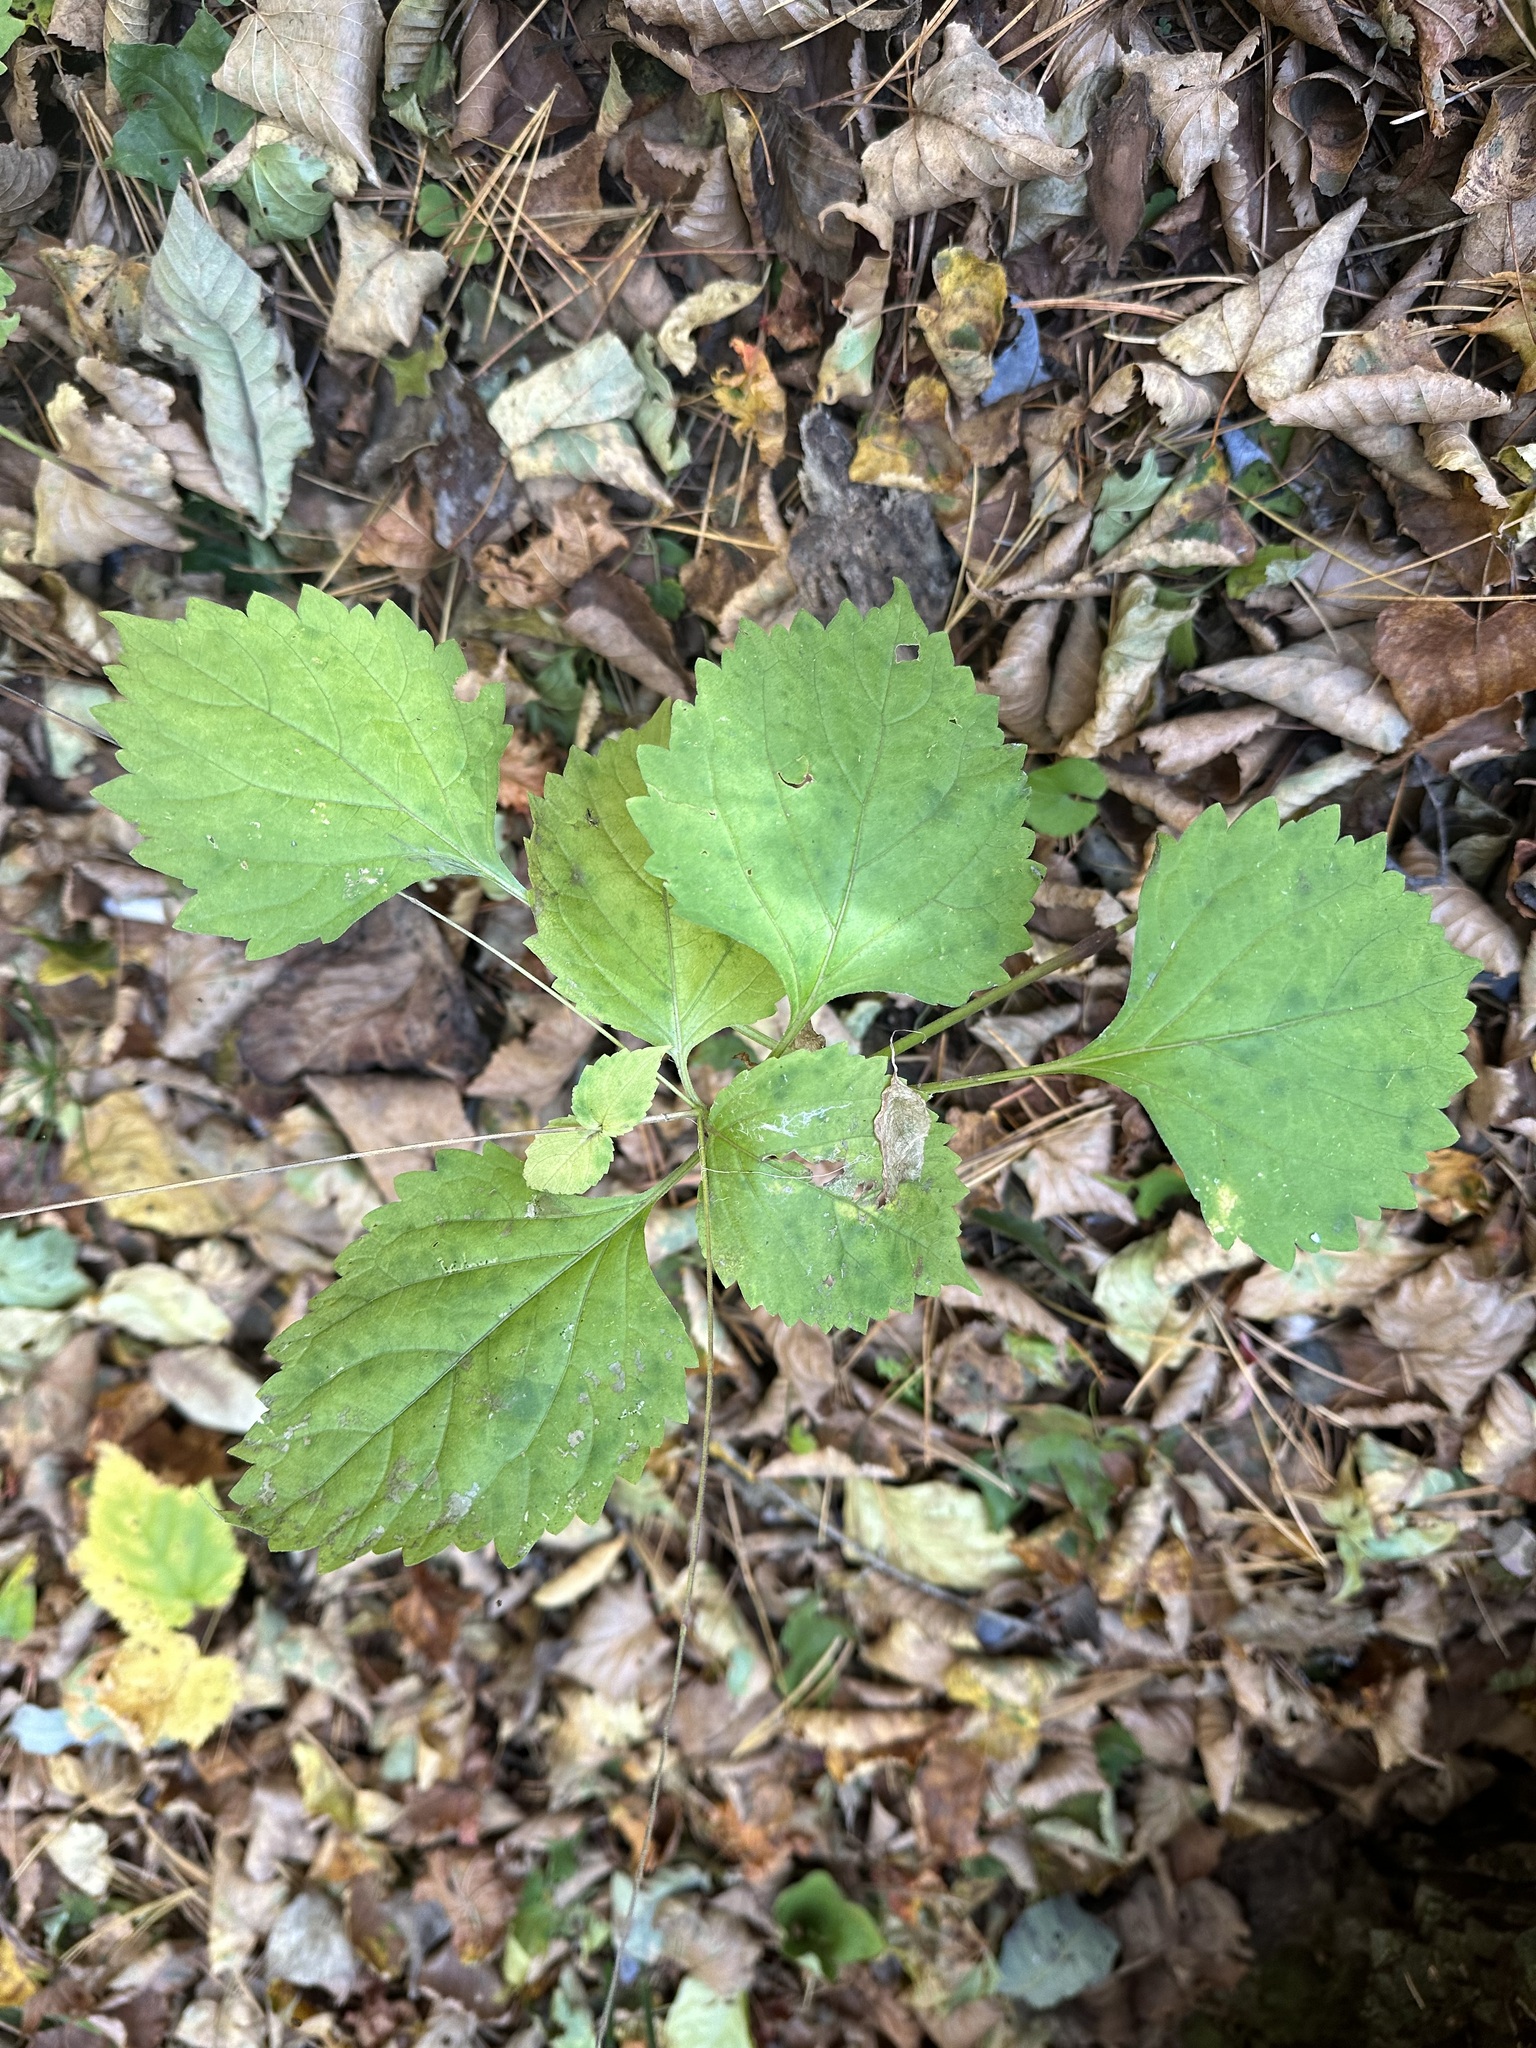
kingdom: Plantae
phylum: Tracheophyta
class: Magnoliopsida
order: Lamiales
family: Phrymaceae
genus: Phryma
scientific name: Phryma nana
